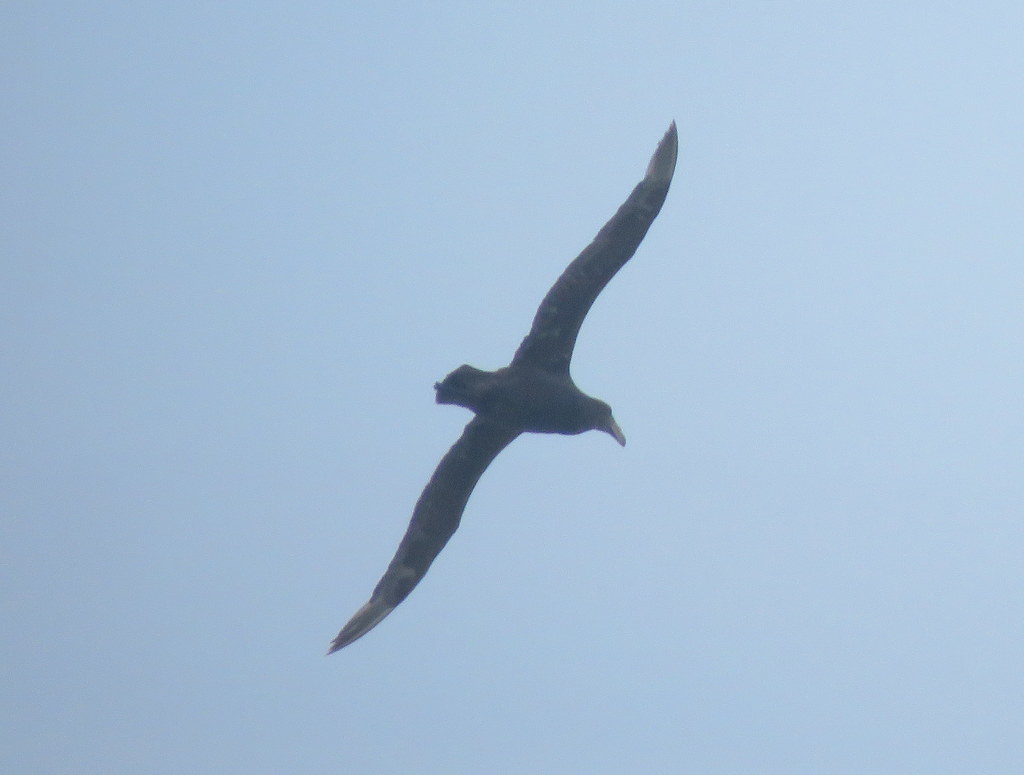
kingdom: Animalia
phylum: Chordata
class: Aves
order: Procellariiformes
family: Procellariidae
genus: Macronectes
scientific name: Macronectes giganteus
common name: Southern giant petrel
